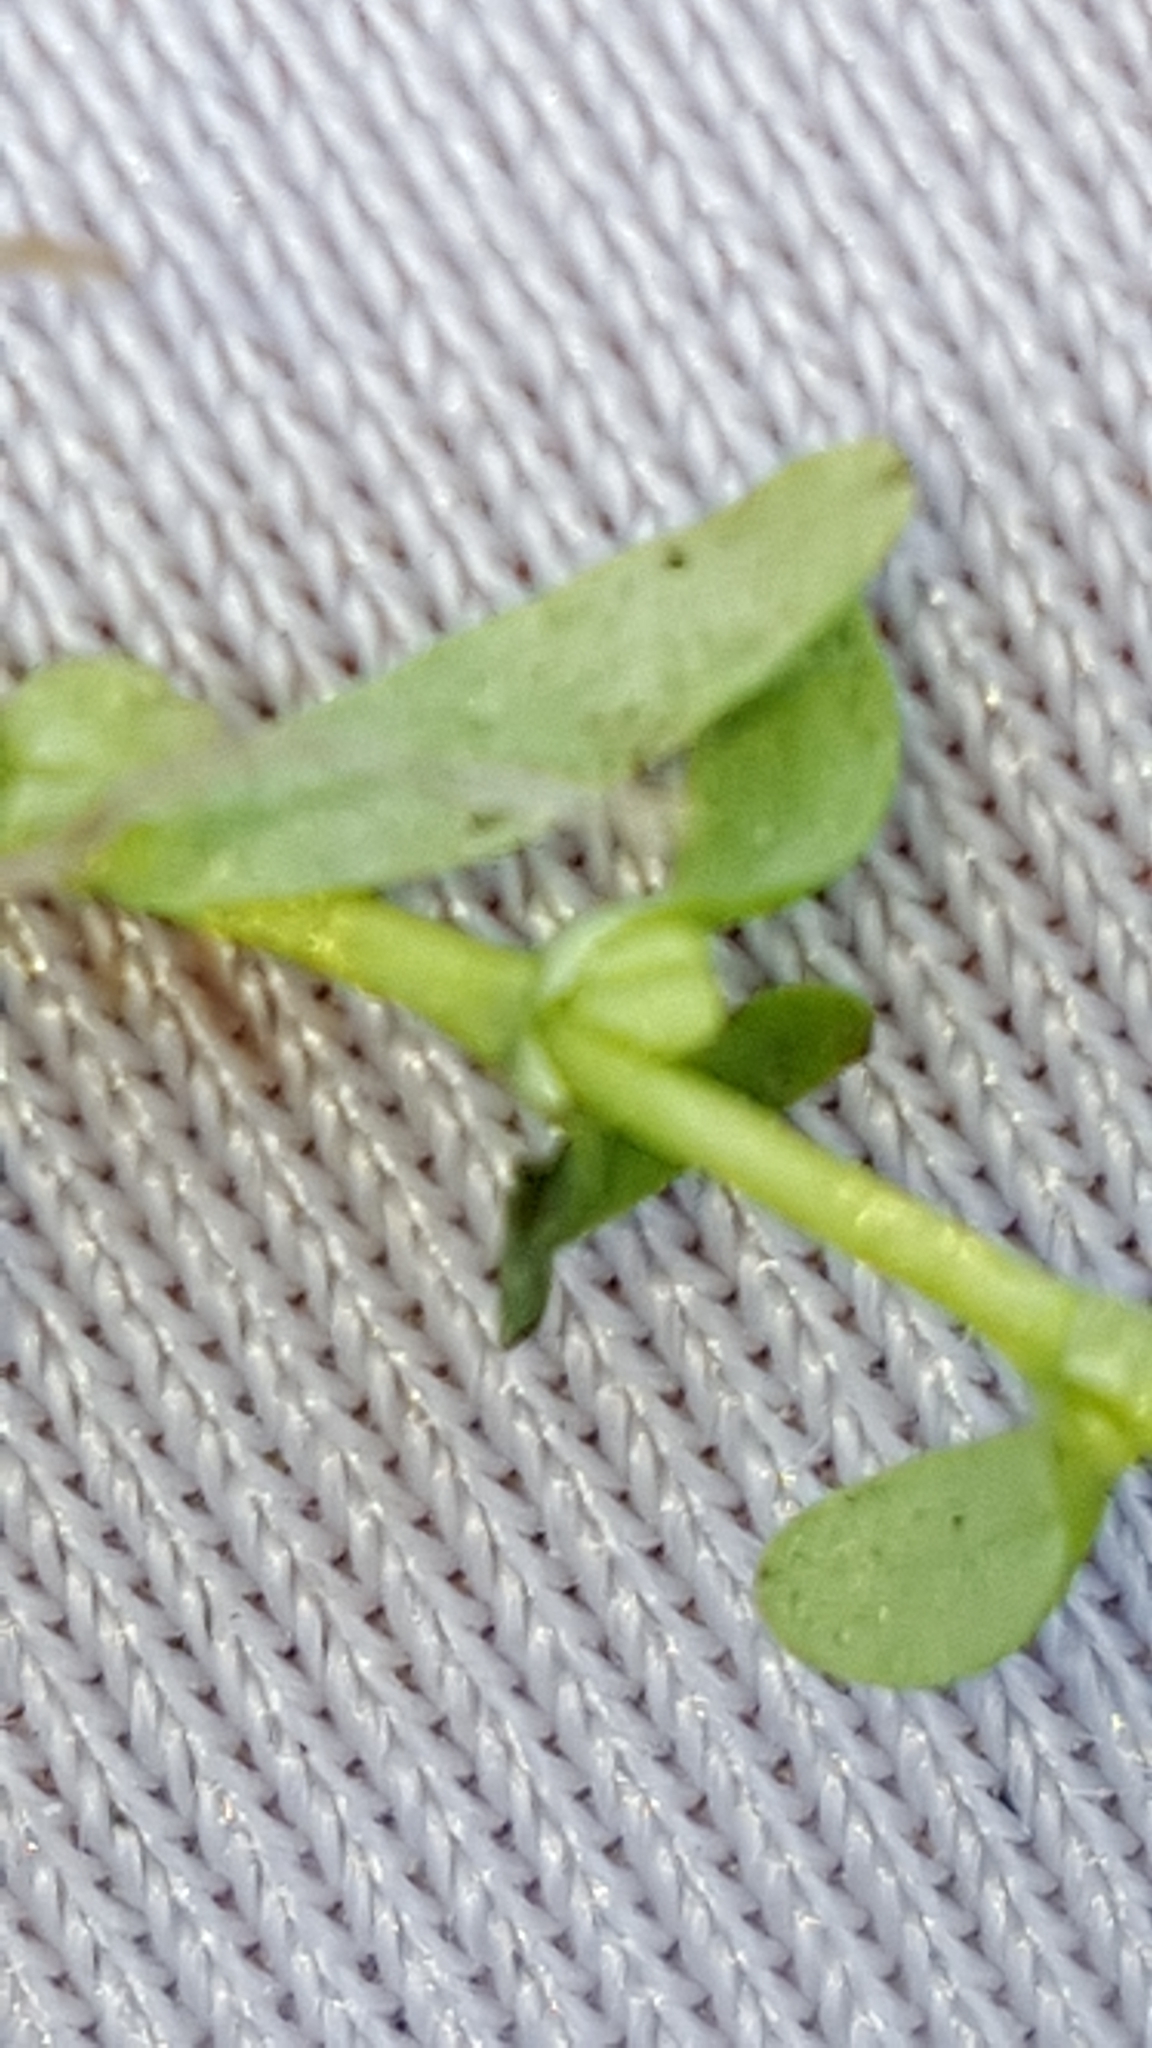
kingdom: Plantae
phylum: Tracheophyta
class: Magnoliopsida
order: Lamiales
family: Plantaginaceae
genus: Callitriche
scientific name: Callitriche palustris
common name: Spring water-starwort
